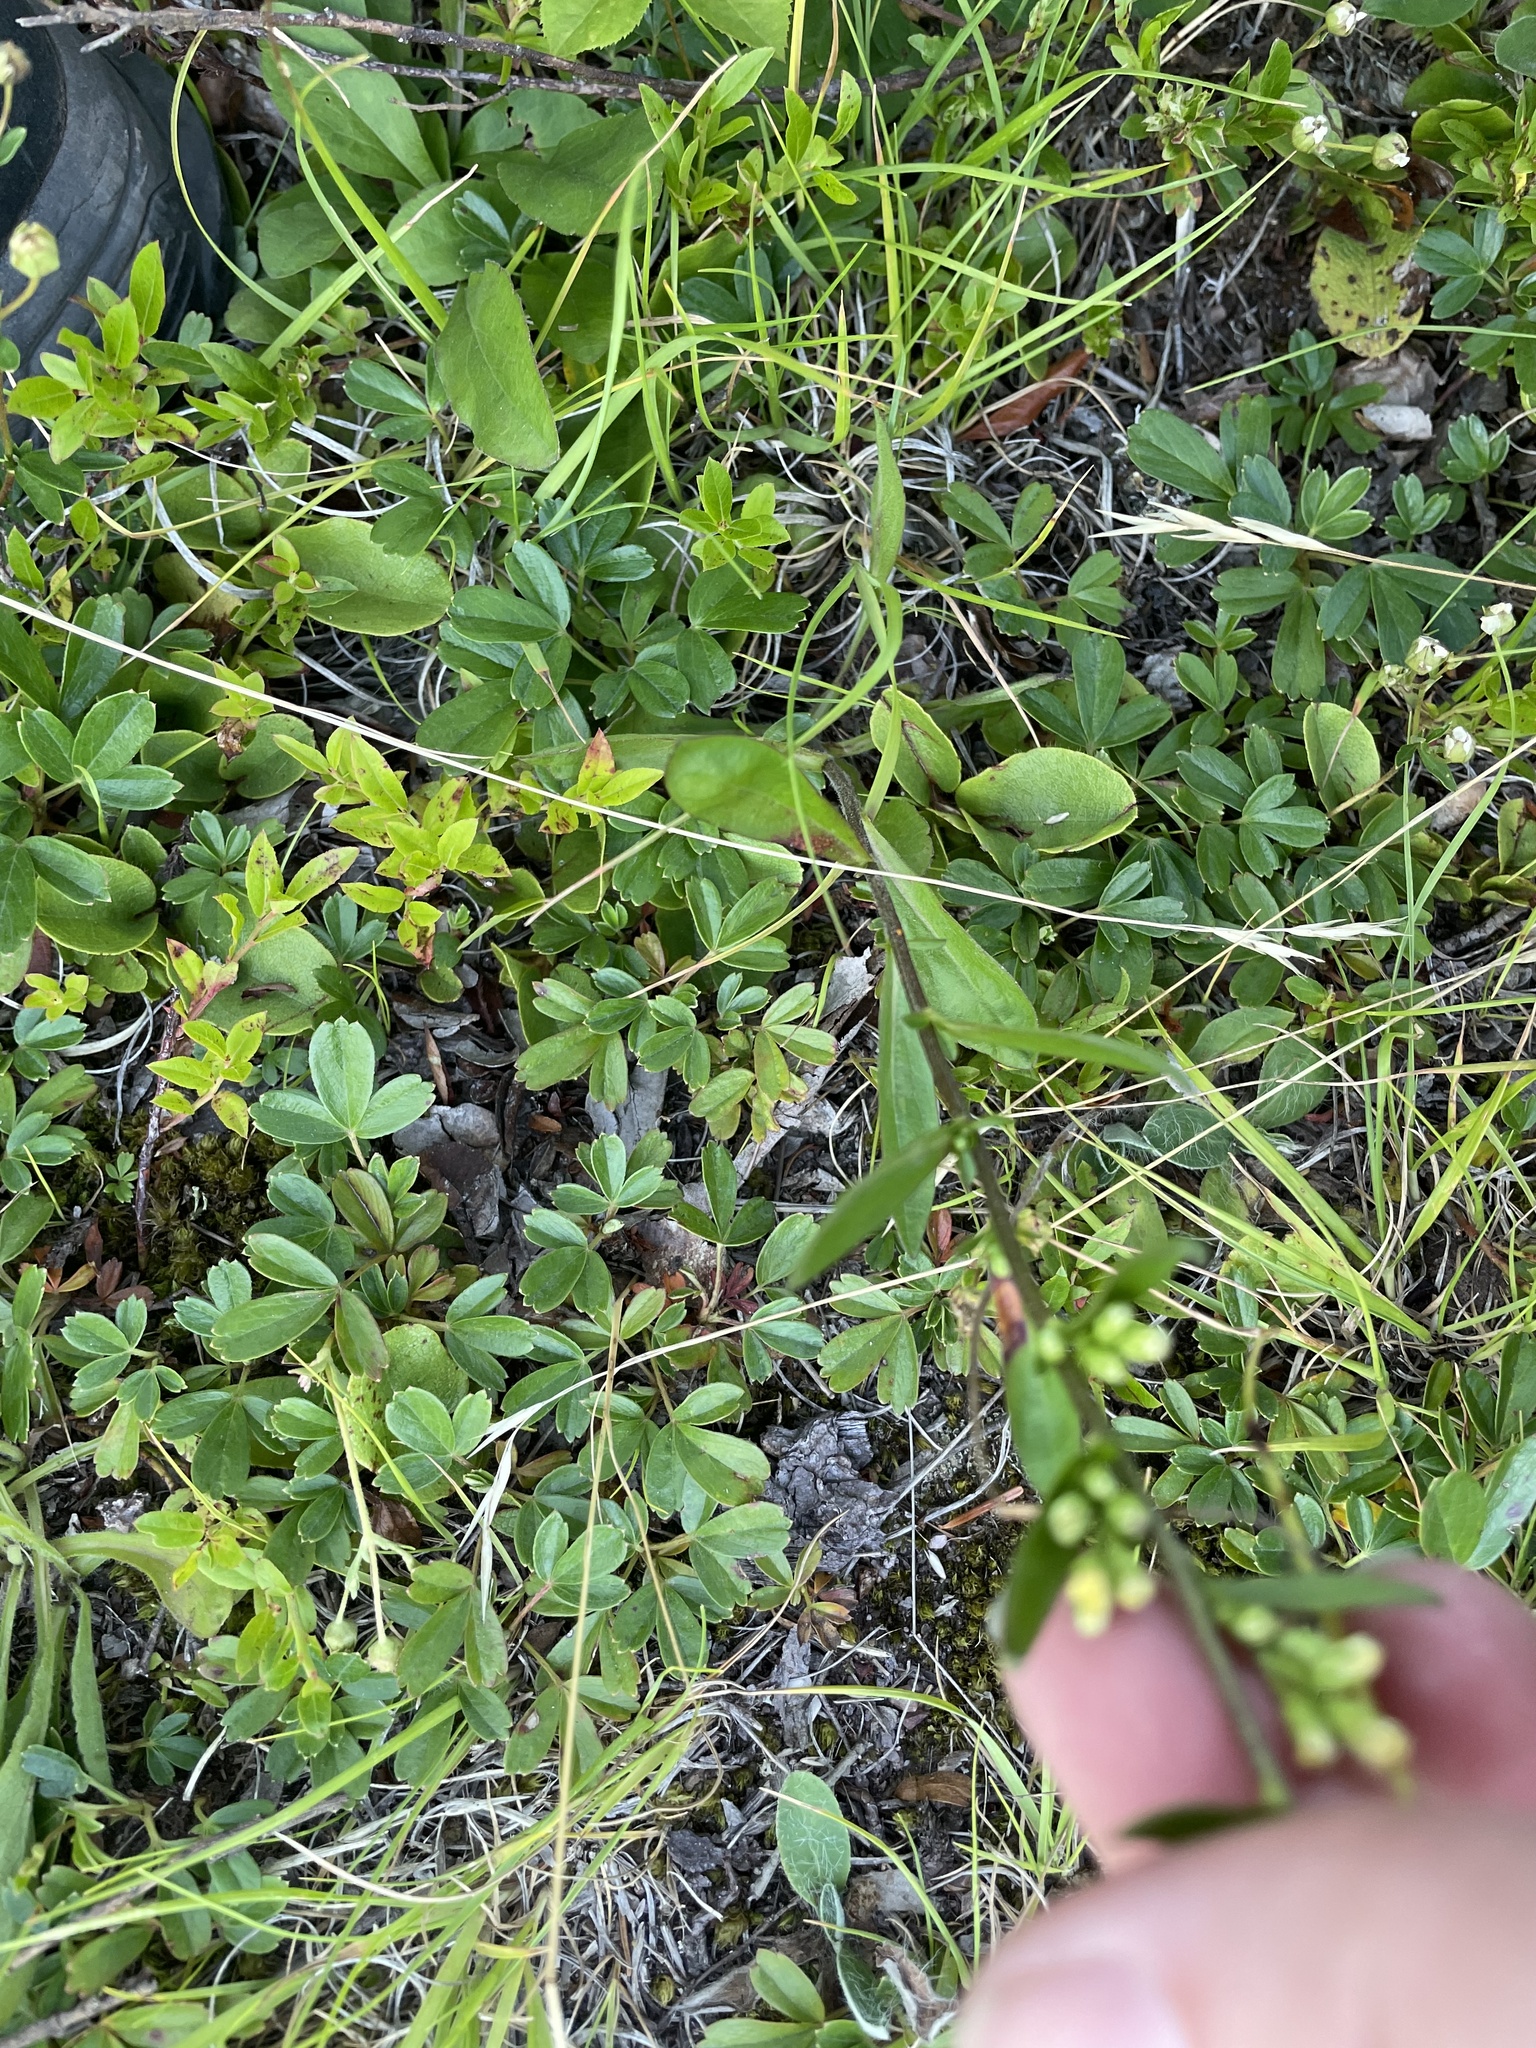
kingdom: Plantae
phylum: Tracheophyta
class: Magnoliopsida
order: Asterales
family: Asteraceae
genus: Solidago
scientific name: Solidago bicolor
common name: Silverrod
